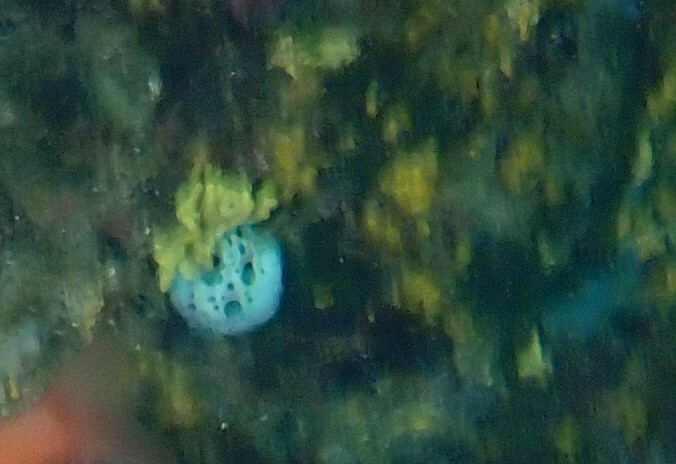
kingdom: Animalia
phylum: Mollusca
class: Gastropoda
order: Nudibranchia
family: Discodorididae
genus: Peltodoris
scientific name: Peltodoris atromaculata
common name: Swiss cow nudibranch
